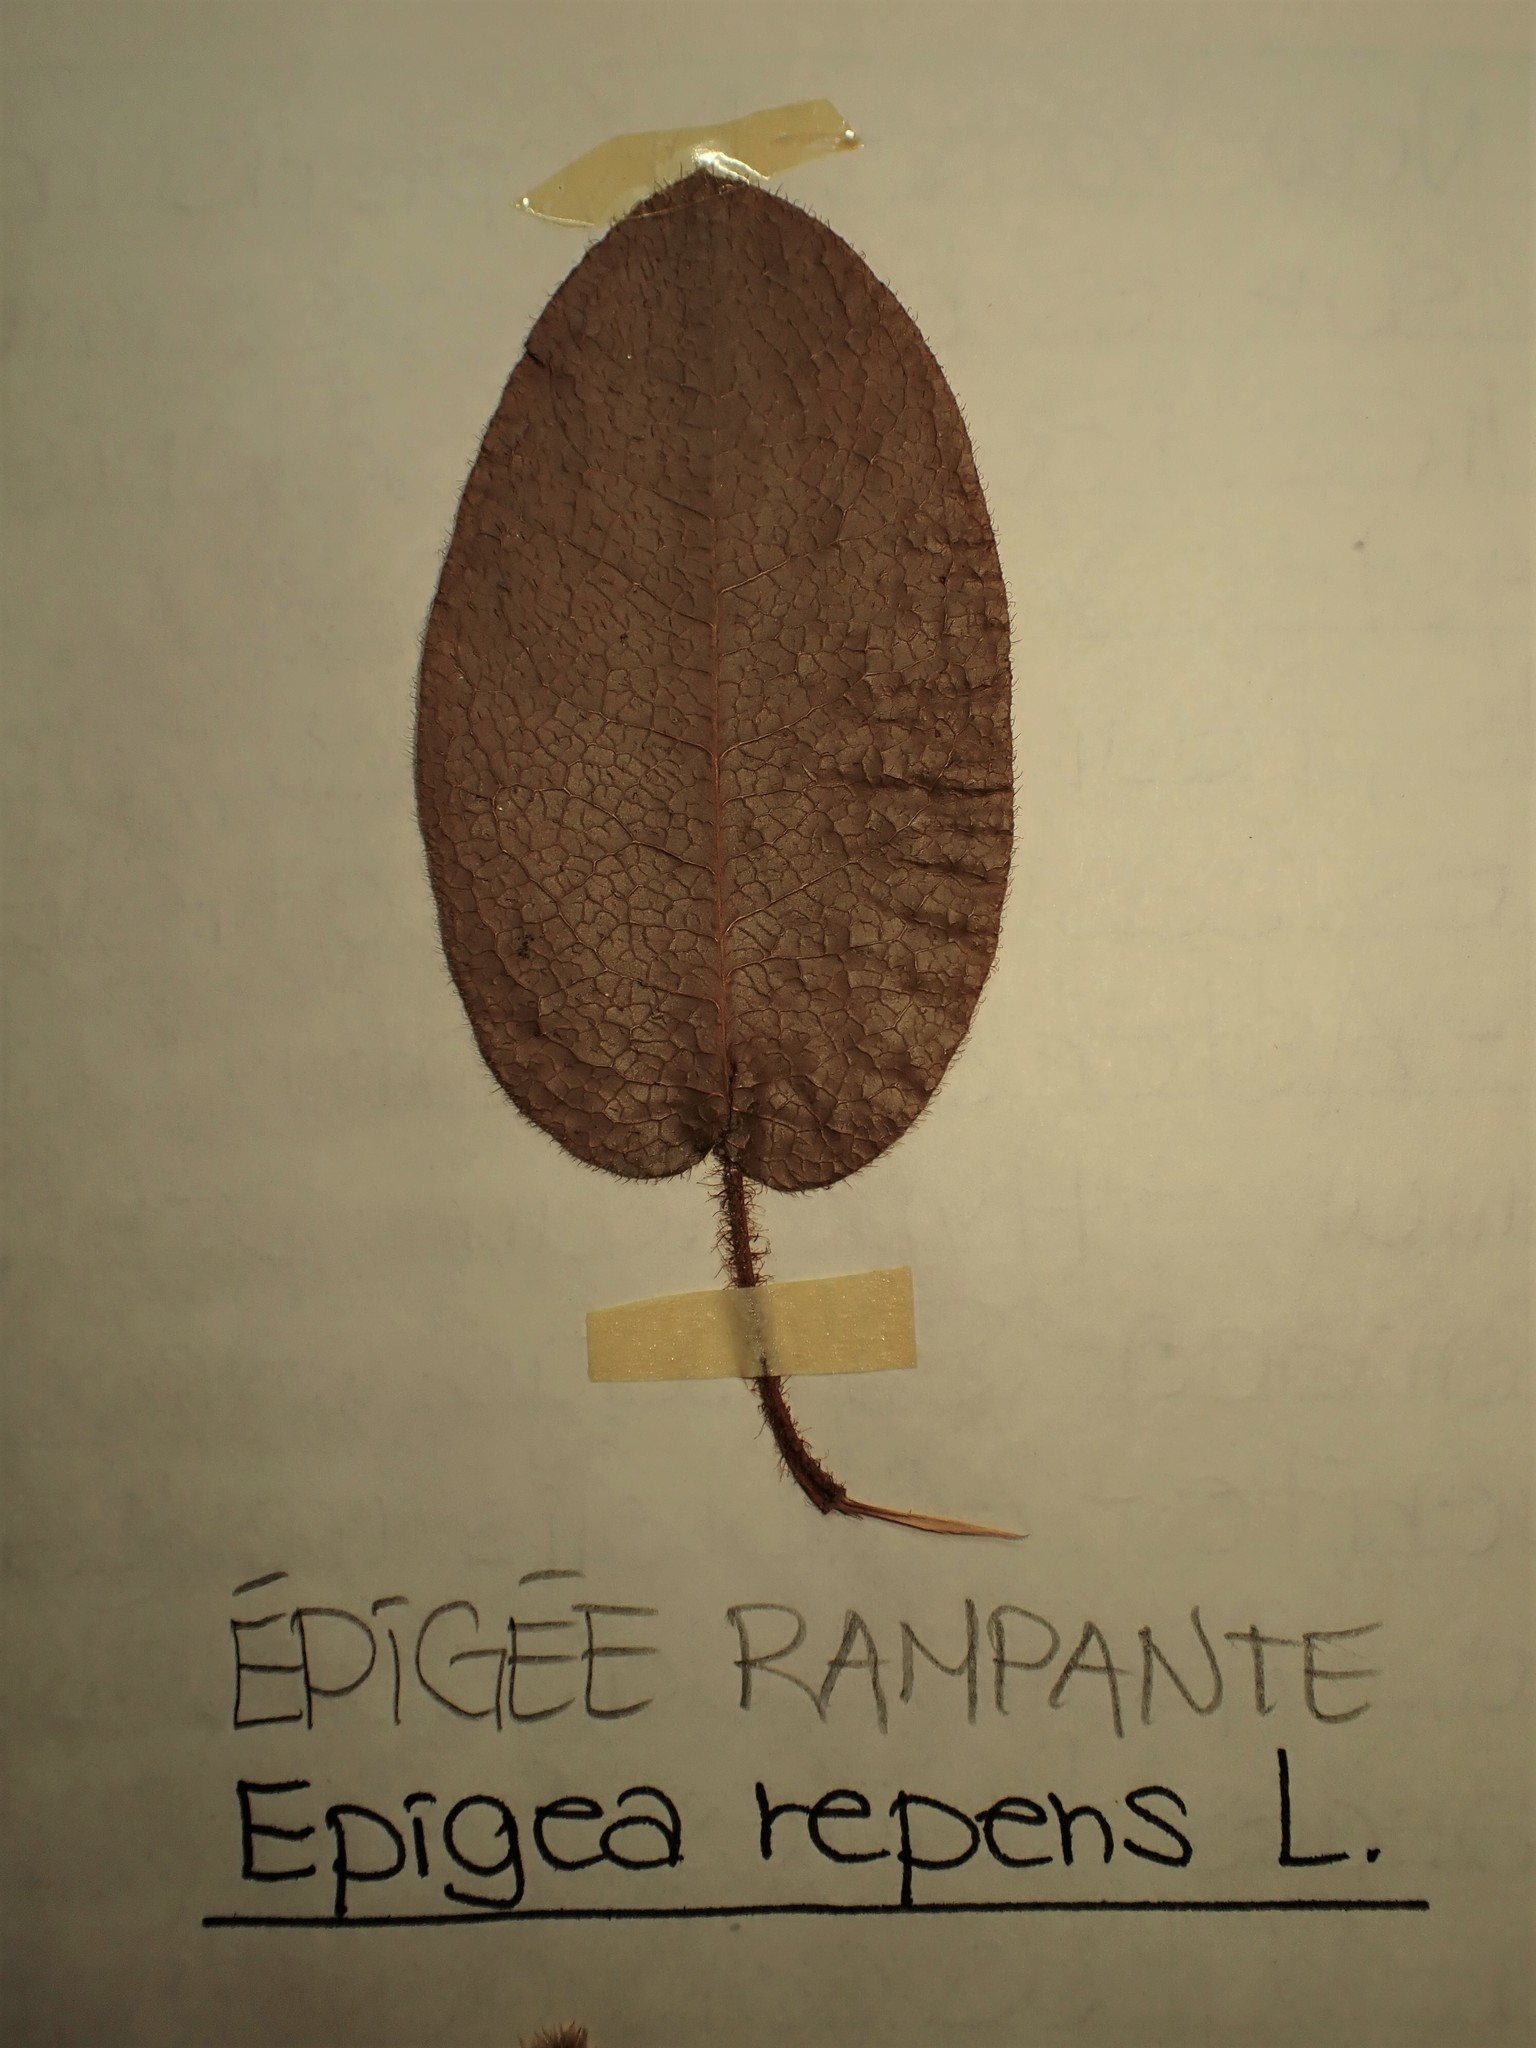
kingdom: Plantae
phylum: Tracheophyta
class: Magnoliopsida
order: Ericales
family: Ericaceae
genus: Epigaea
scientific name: Epigaea repens
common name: Gravelroot
